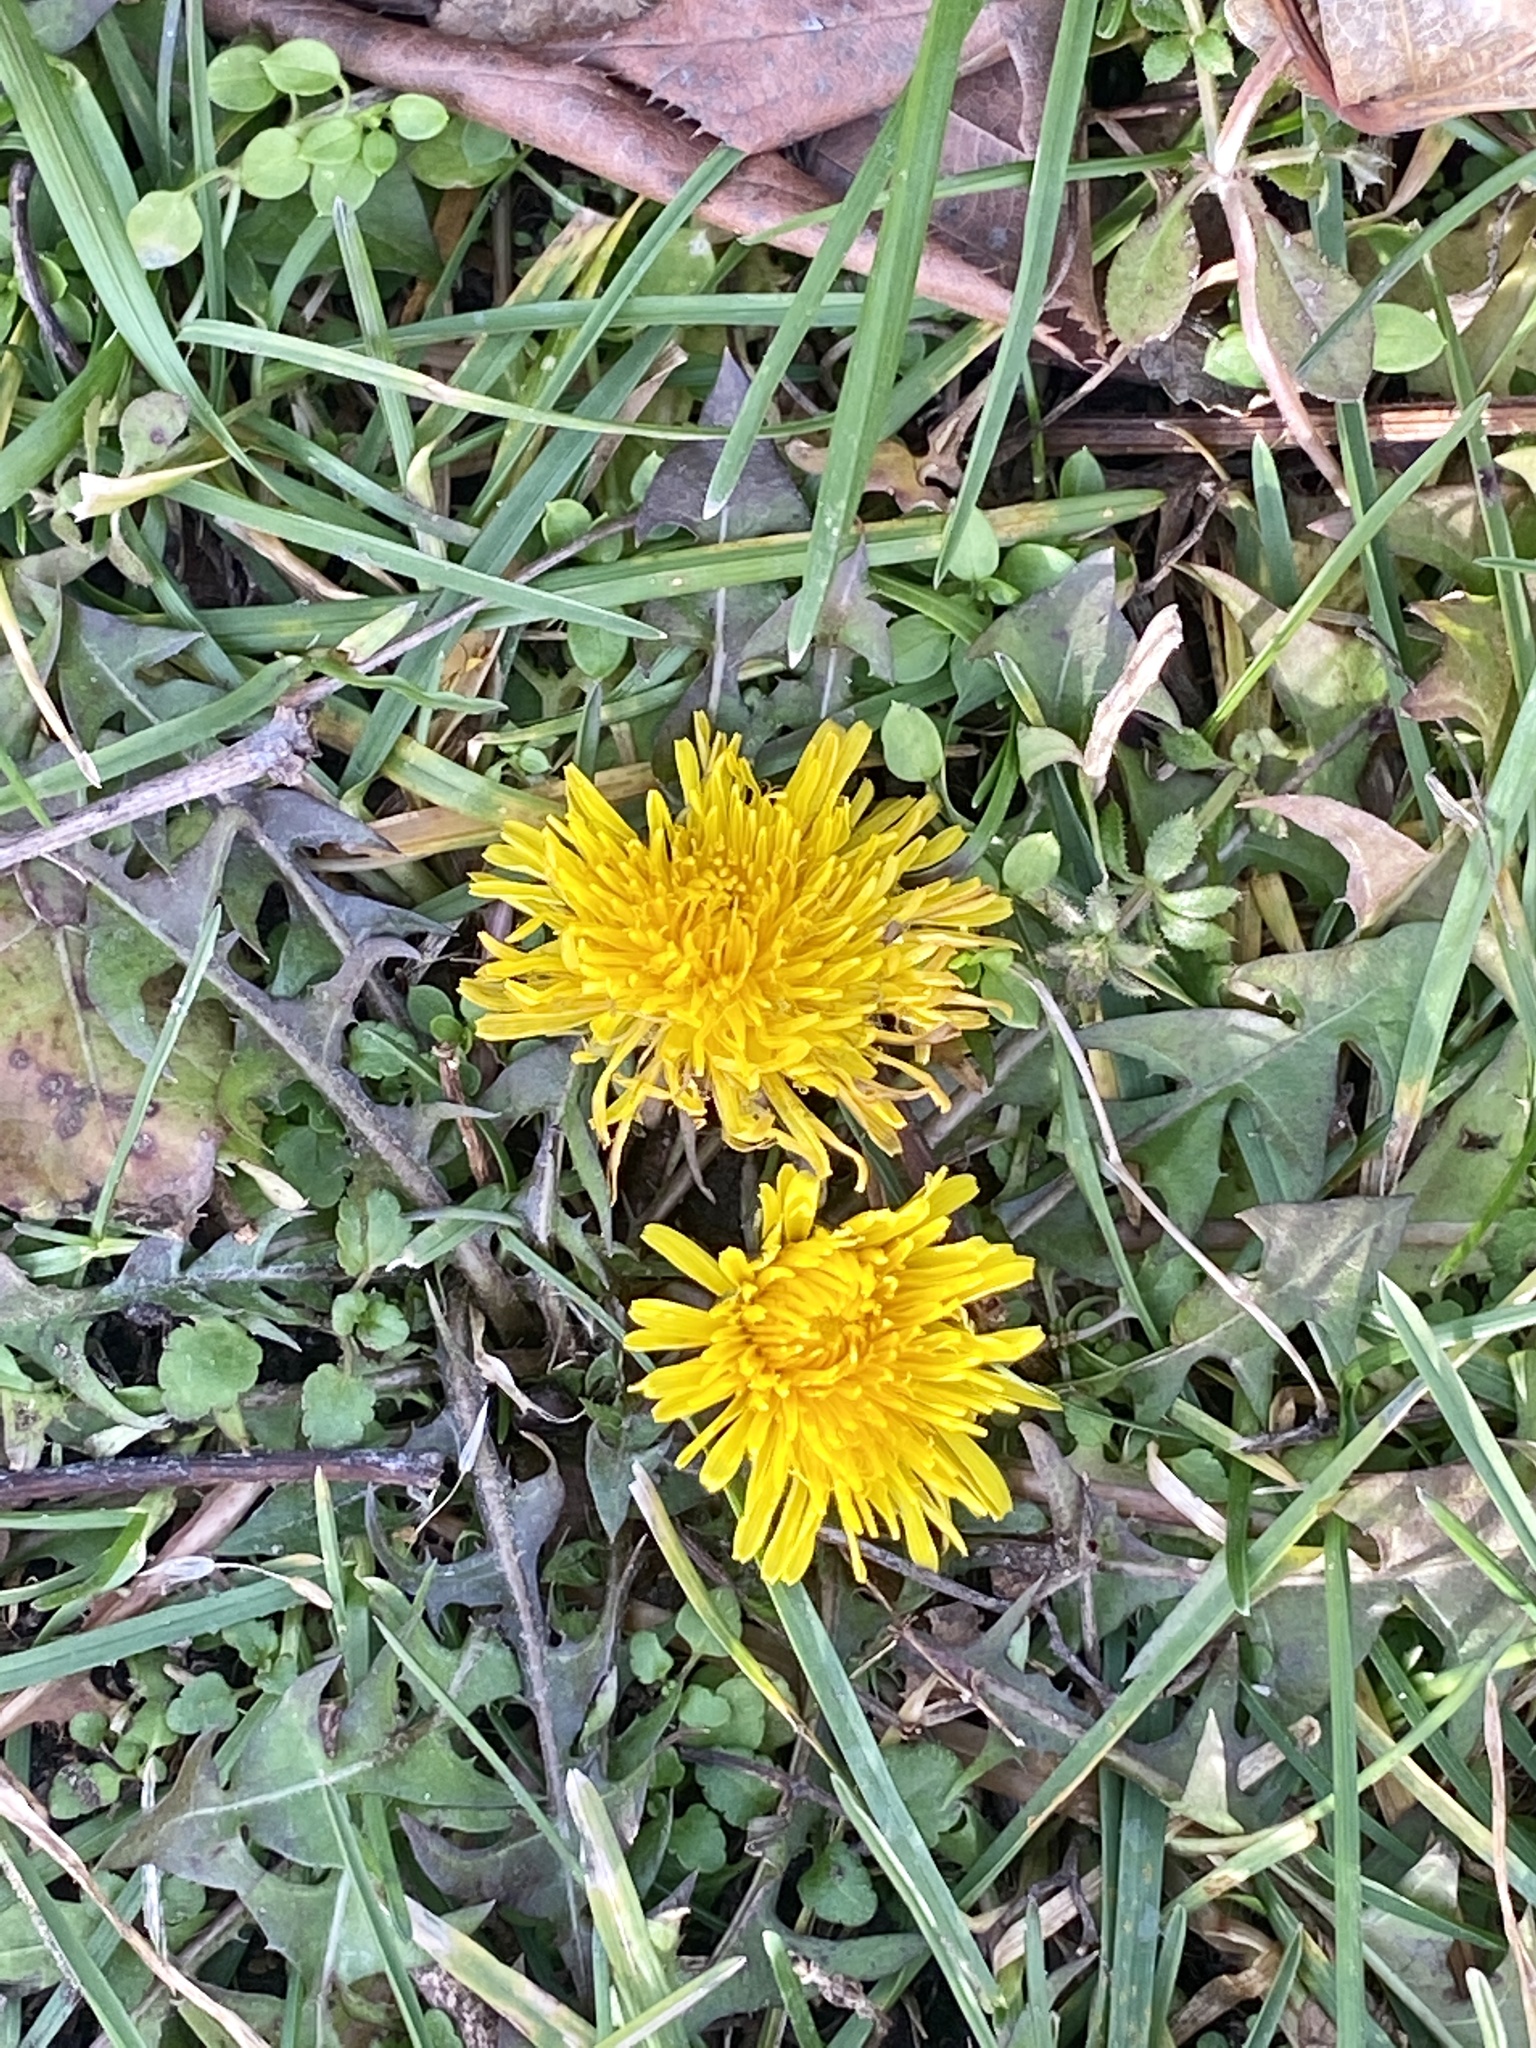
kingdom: Plantae
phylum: Tracheophyta
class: Magnoliopsida
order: Asterales
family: Asteraceae
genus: Taraxacum
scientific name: Taraxacum
